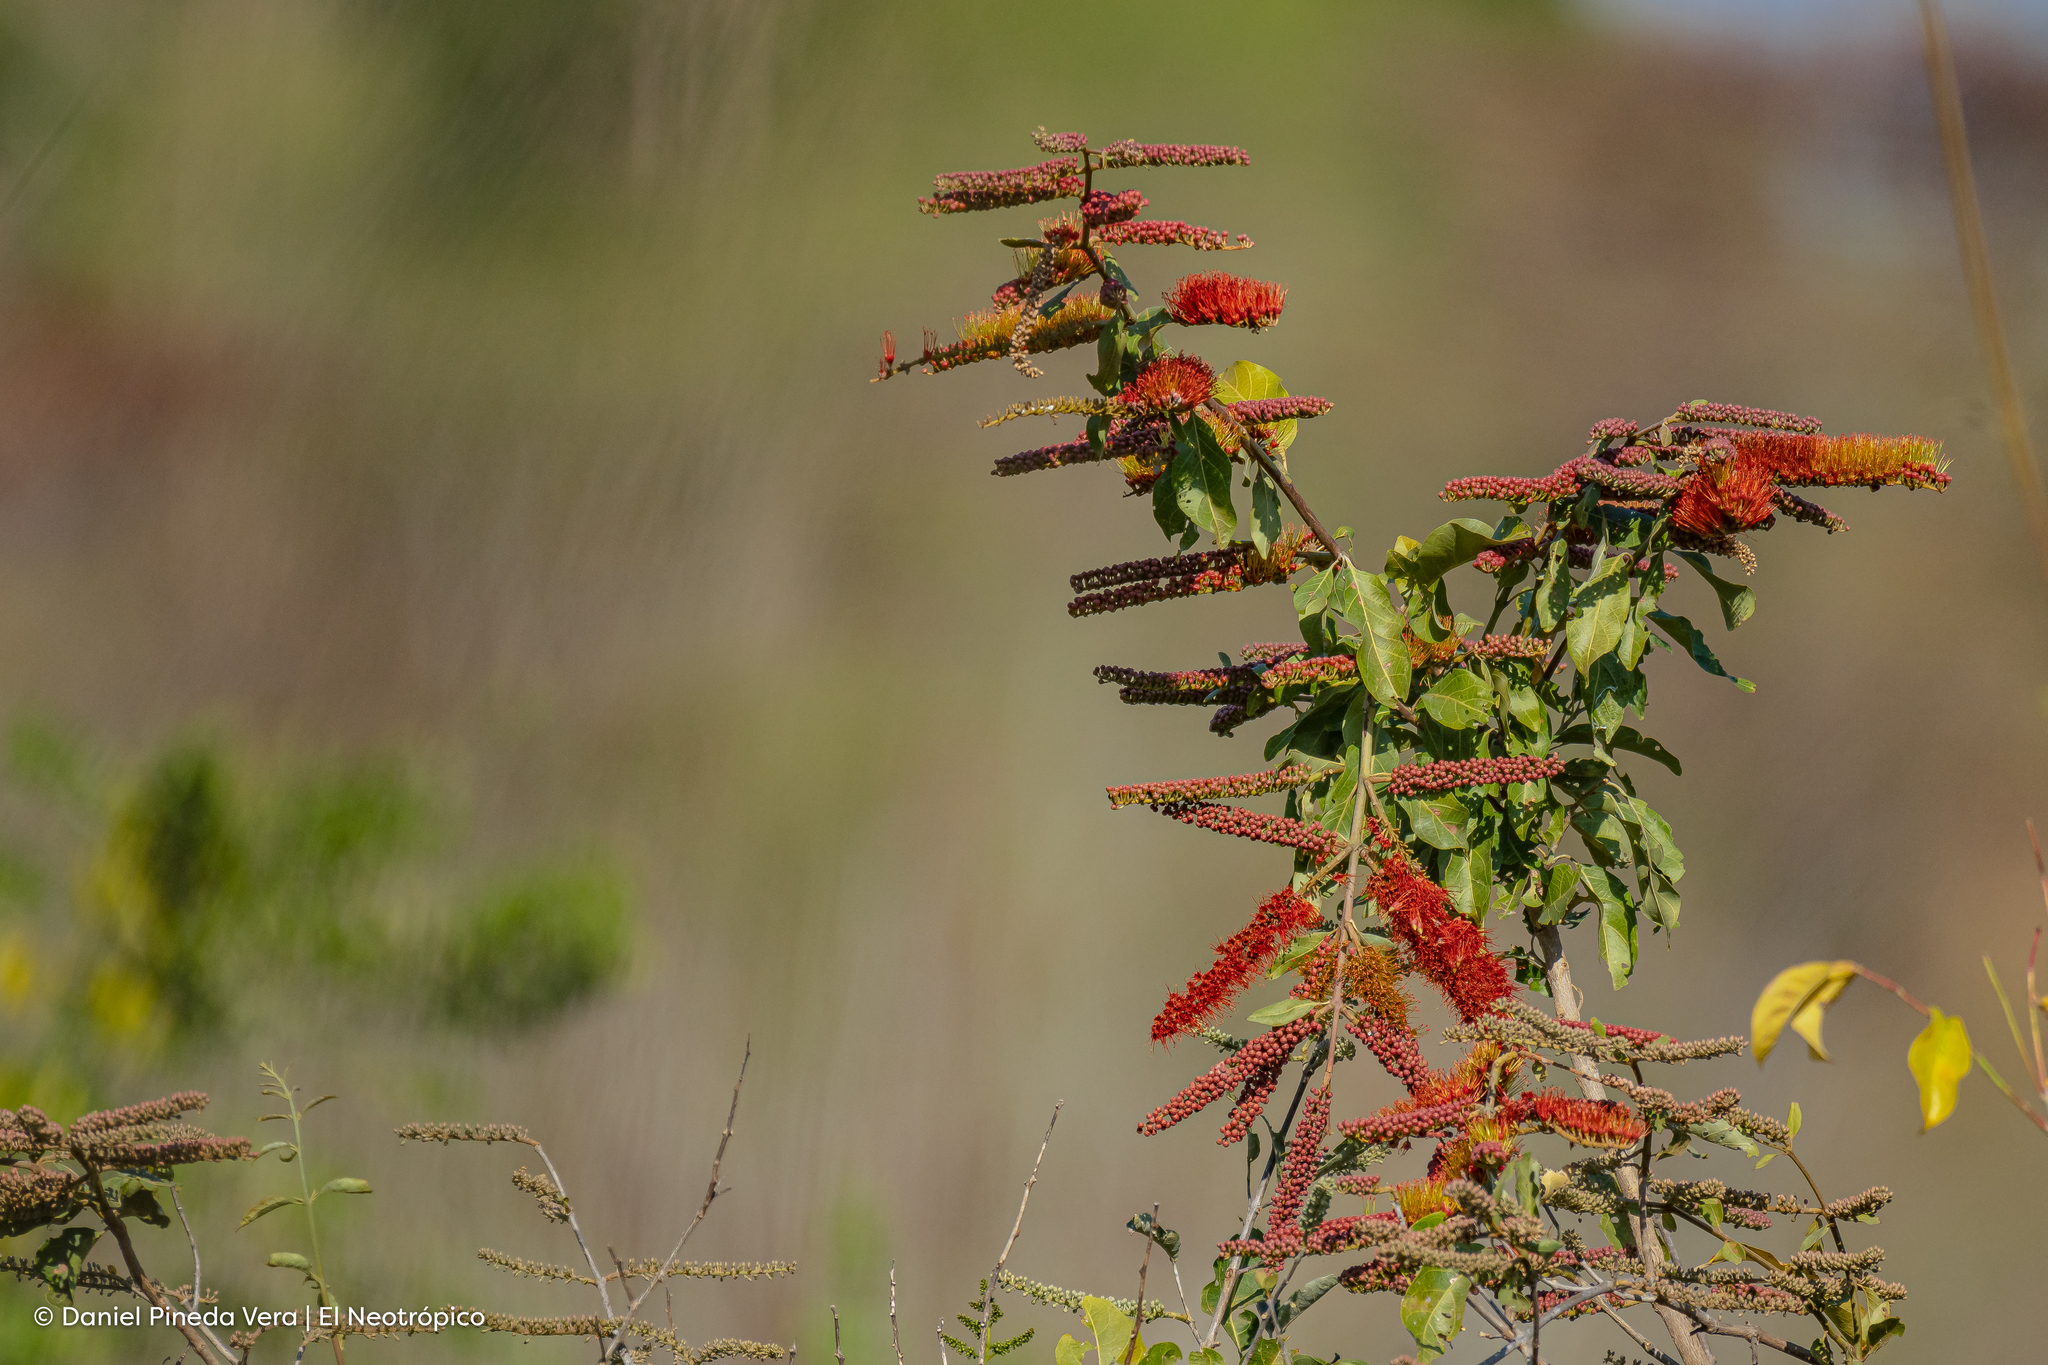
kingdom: Plantae
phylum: Tracheophyta
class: Magnoliopsida
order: Myrtales
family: Combretaceae
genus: Combretum
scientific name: Combretum farinosum
